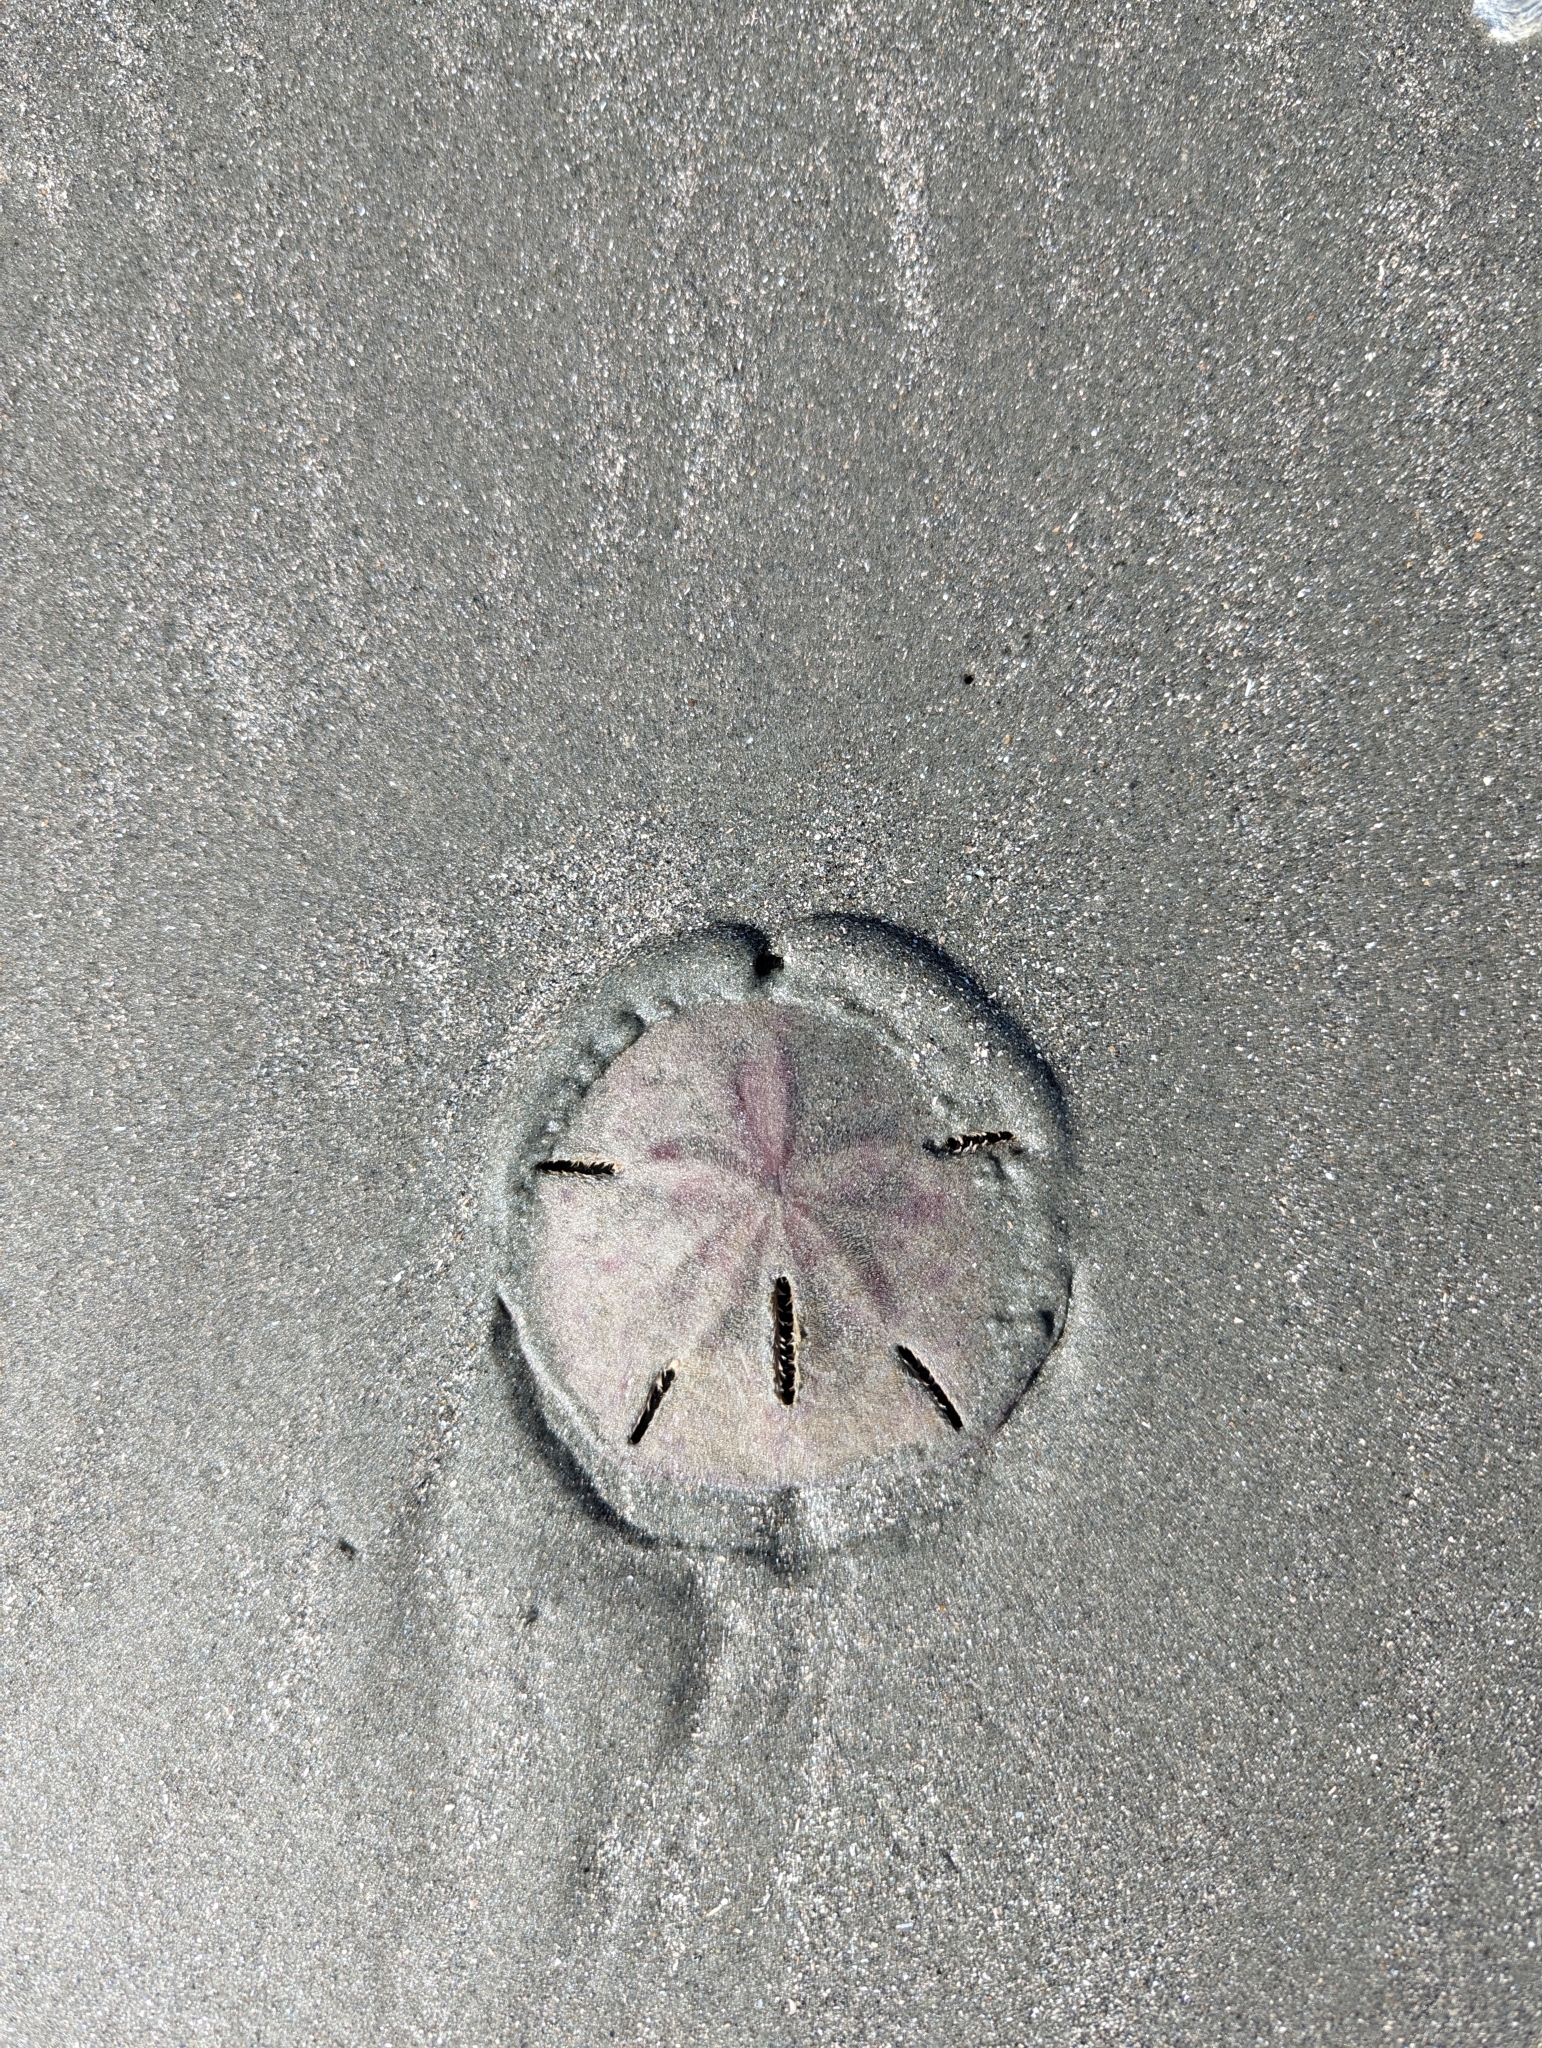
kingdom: Animalia
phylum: Echinodermata
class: Echinoidea
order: Echinolampadacea
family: Mellitidae
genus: Mellita
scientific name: Mellita isometra
